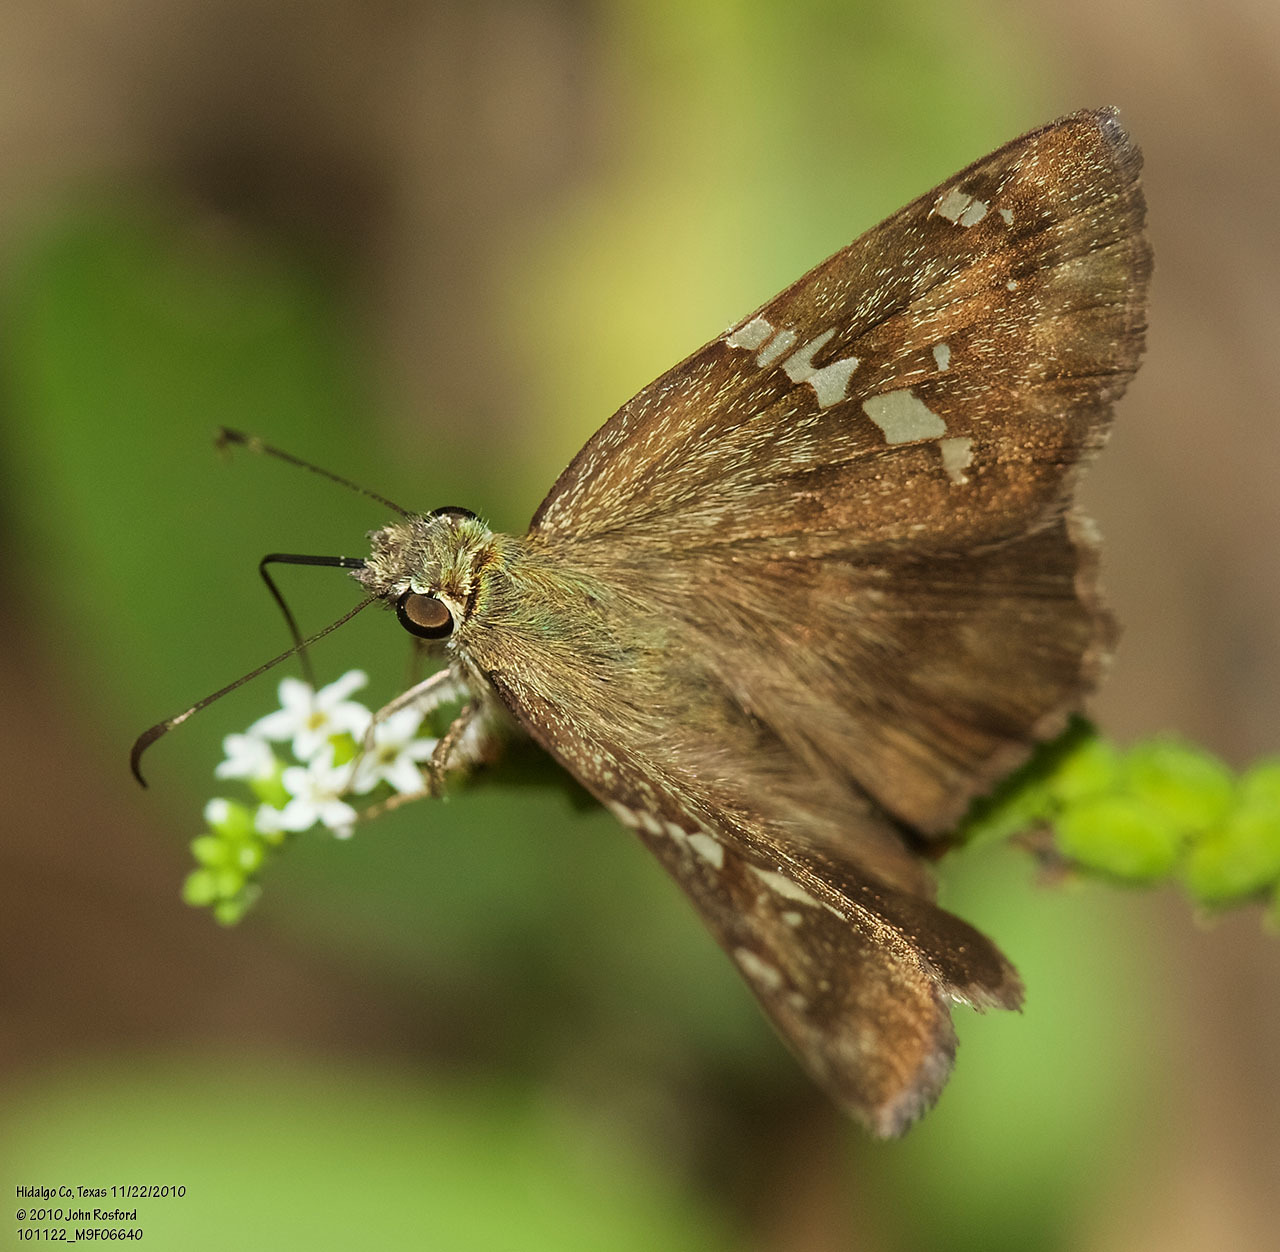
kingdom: Animalia
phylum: Arthropoda
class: Insecta
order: Lepidoptera
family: Hesperiidae
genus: Autochton
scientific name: Autochton potrillo
